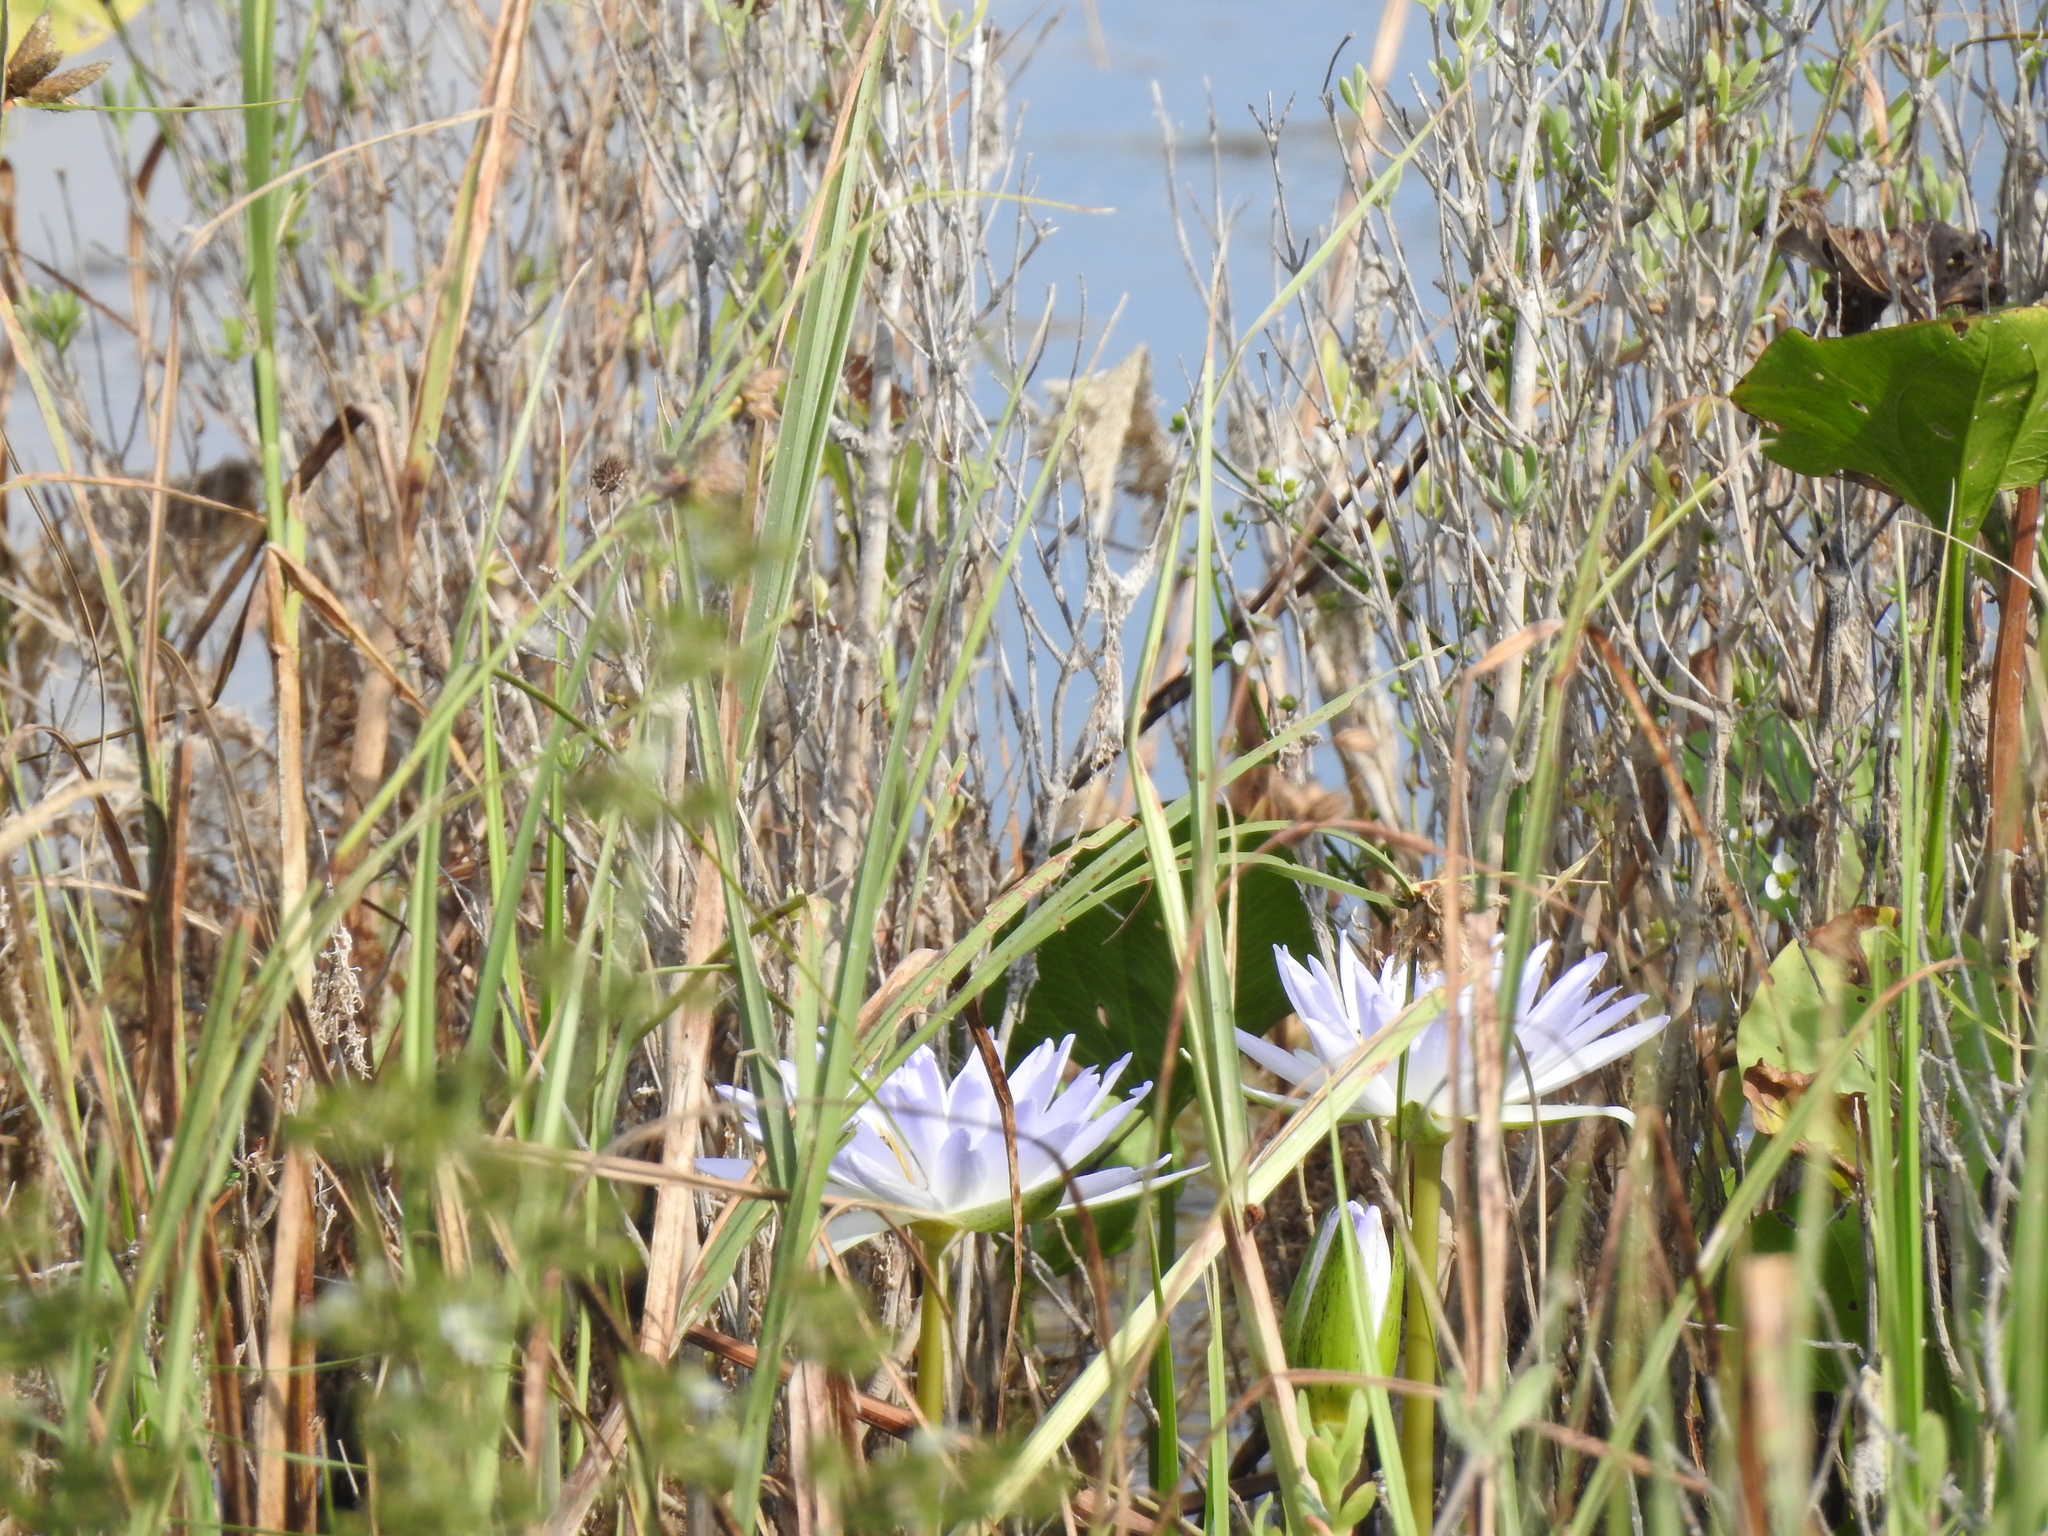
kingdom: Plantae
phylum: Tracheophyta
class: Magnoliopsida
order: Nymphaeales
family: Nymphaeaceae
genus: Nymphaea
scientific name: Nymphaea elegans
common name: Blue water-lily
